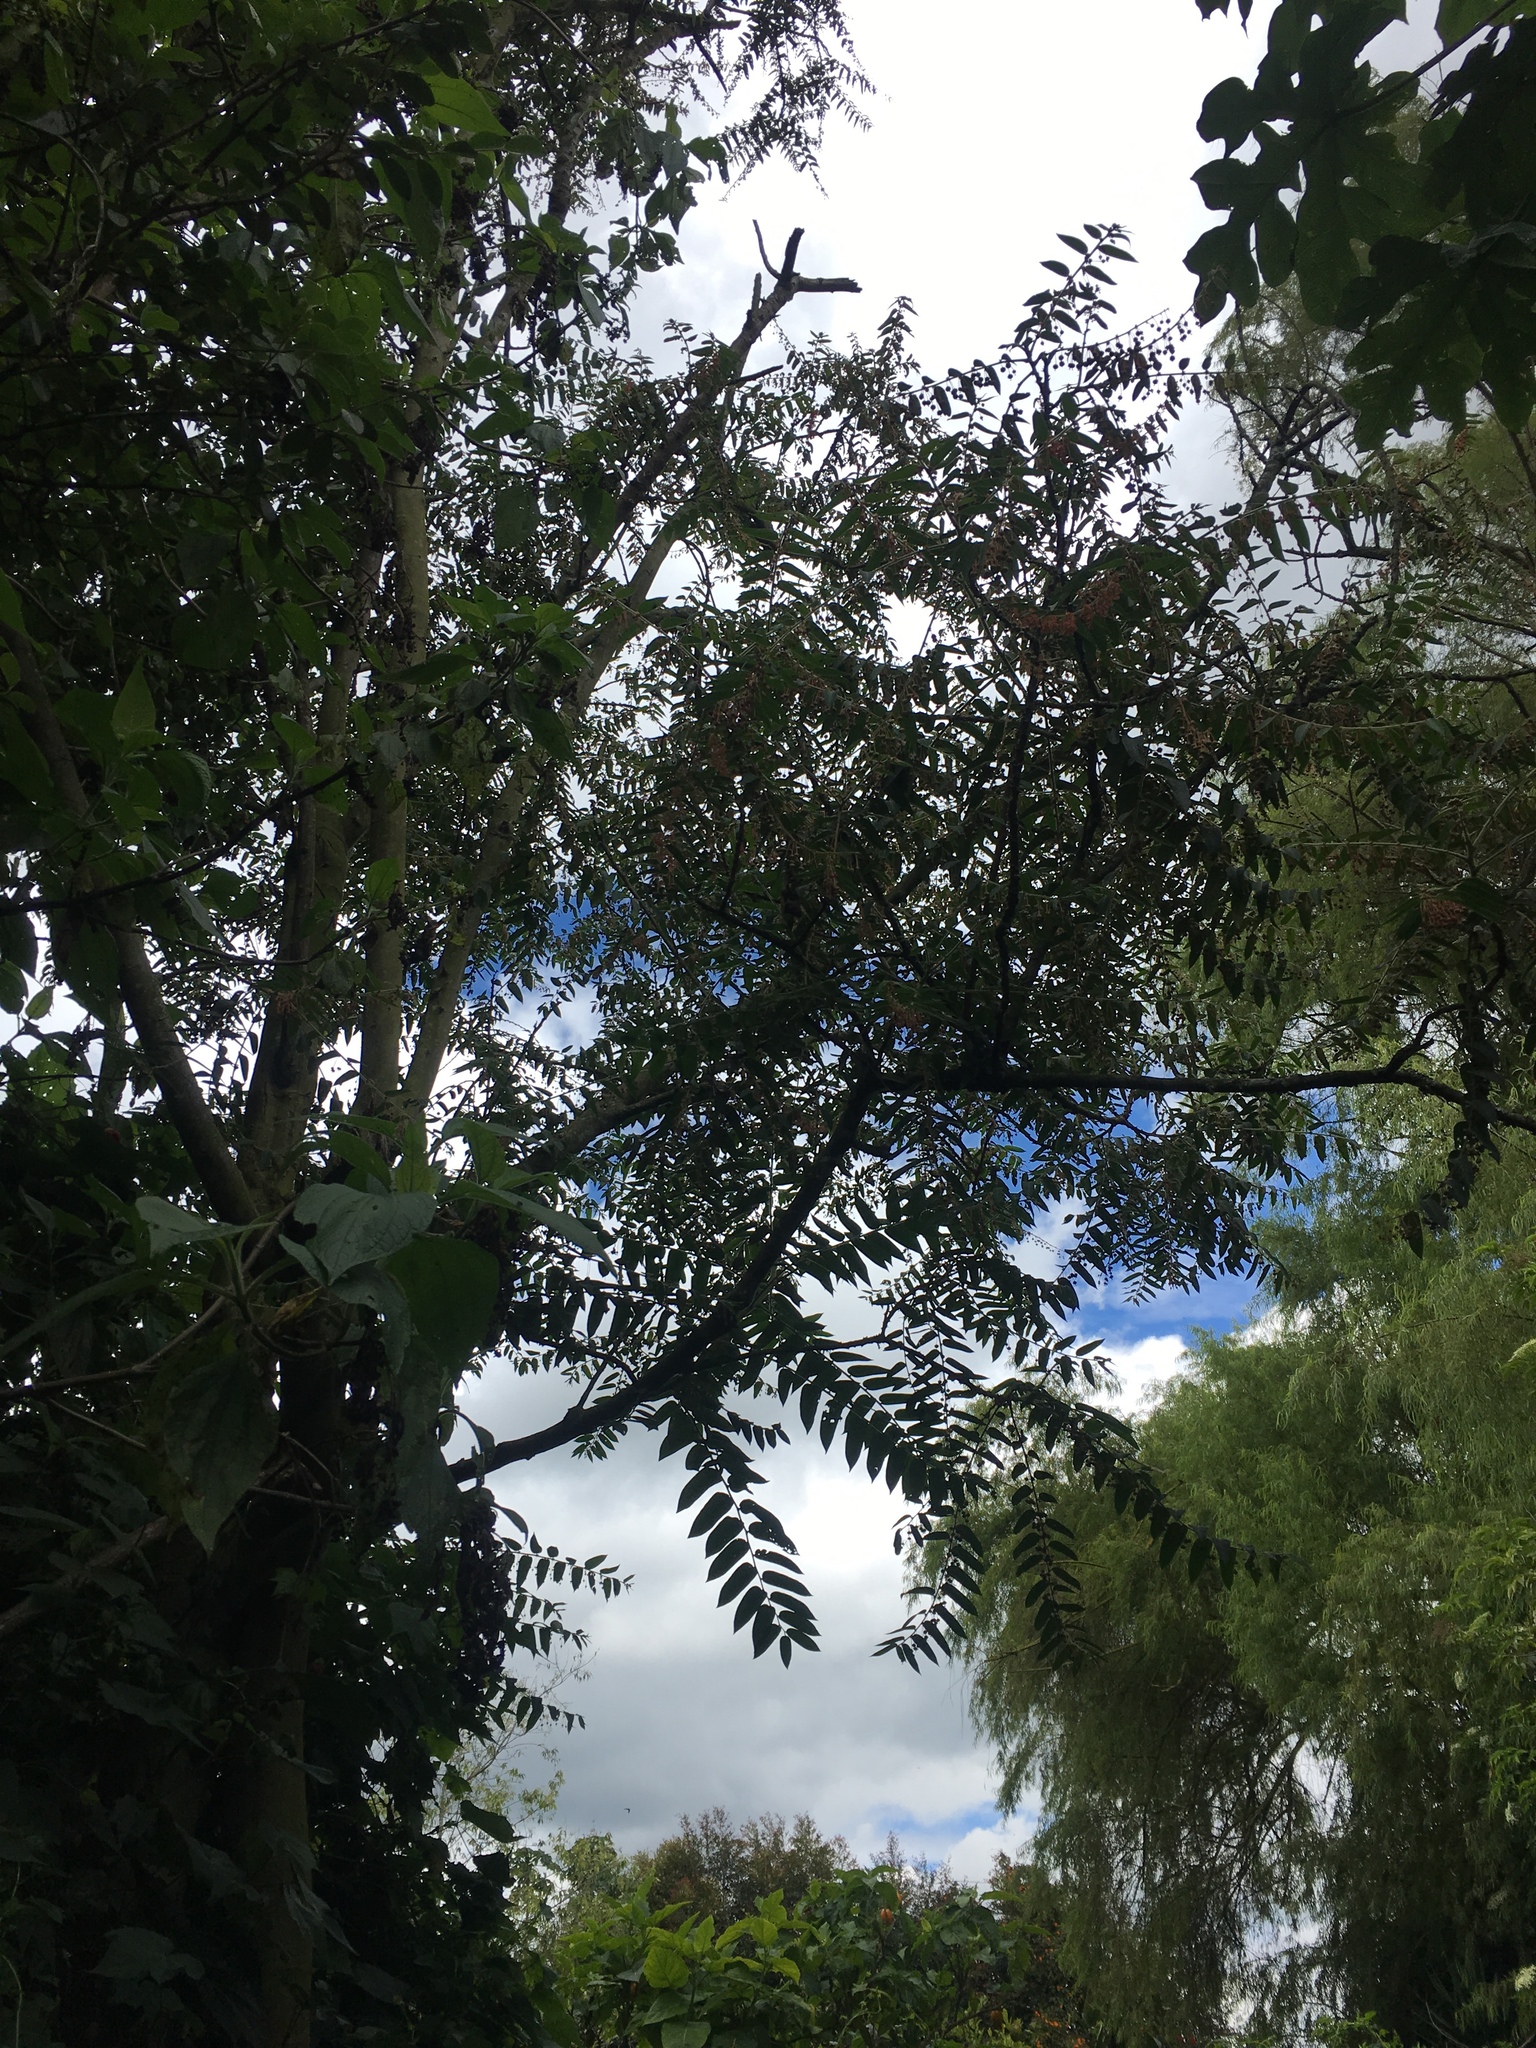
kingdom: Plantae
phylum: Tracheophyta
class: Magnoliopsida
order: Malpighiales
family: Phyllanthaceae
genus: Phyllanthus
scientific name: Phyllanthus salviifolius
